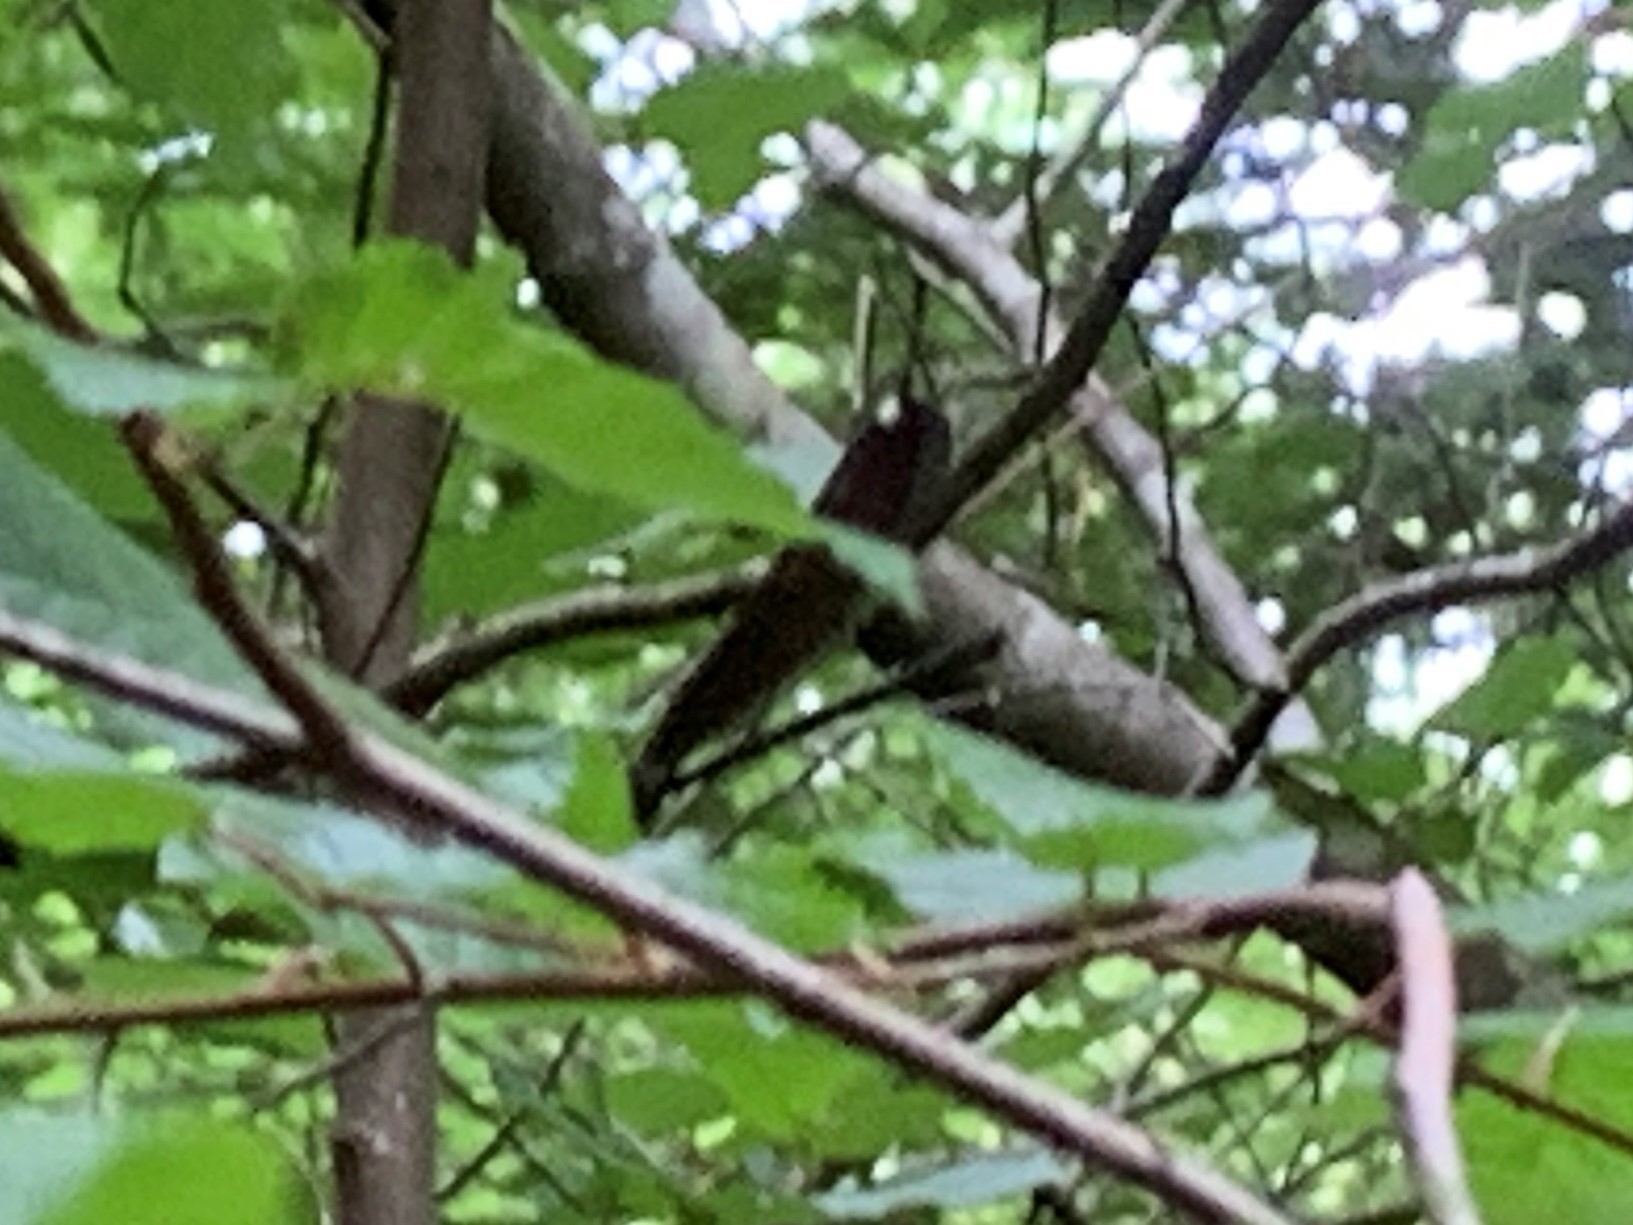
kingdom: Animalia
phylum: Arthropoda
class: Insecta
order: Odonata
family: Calopterygidae
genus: Calopteryx
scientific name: Calopteryx maculata
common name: Ebony jewelwing
